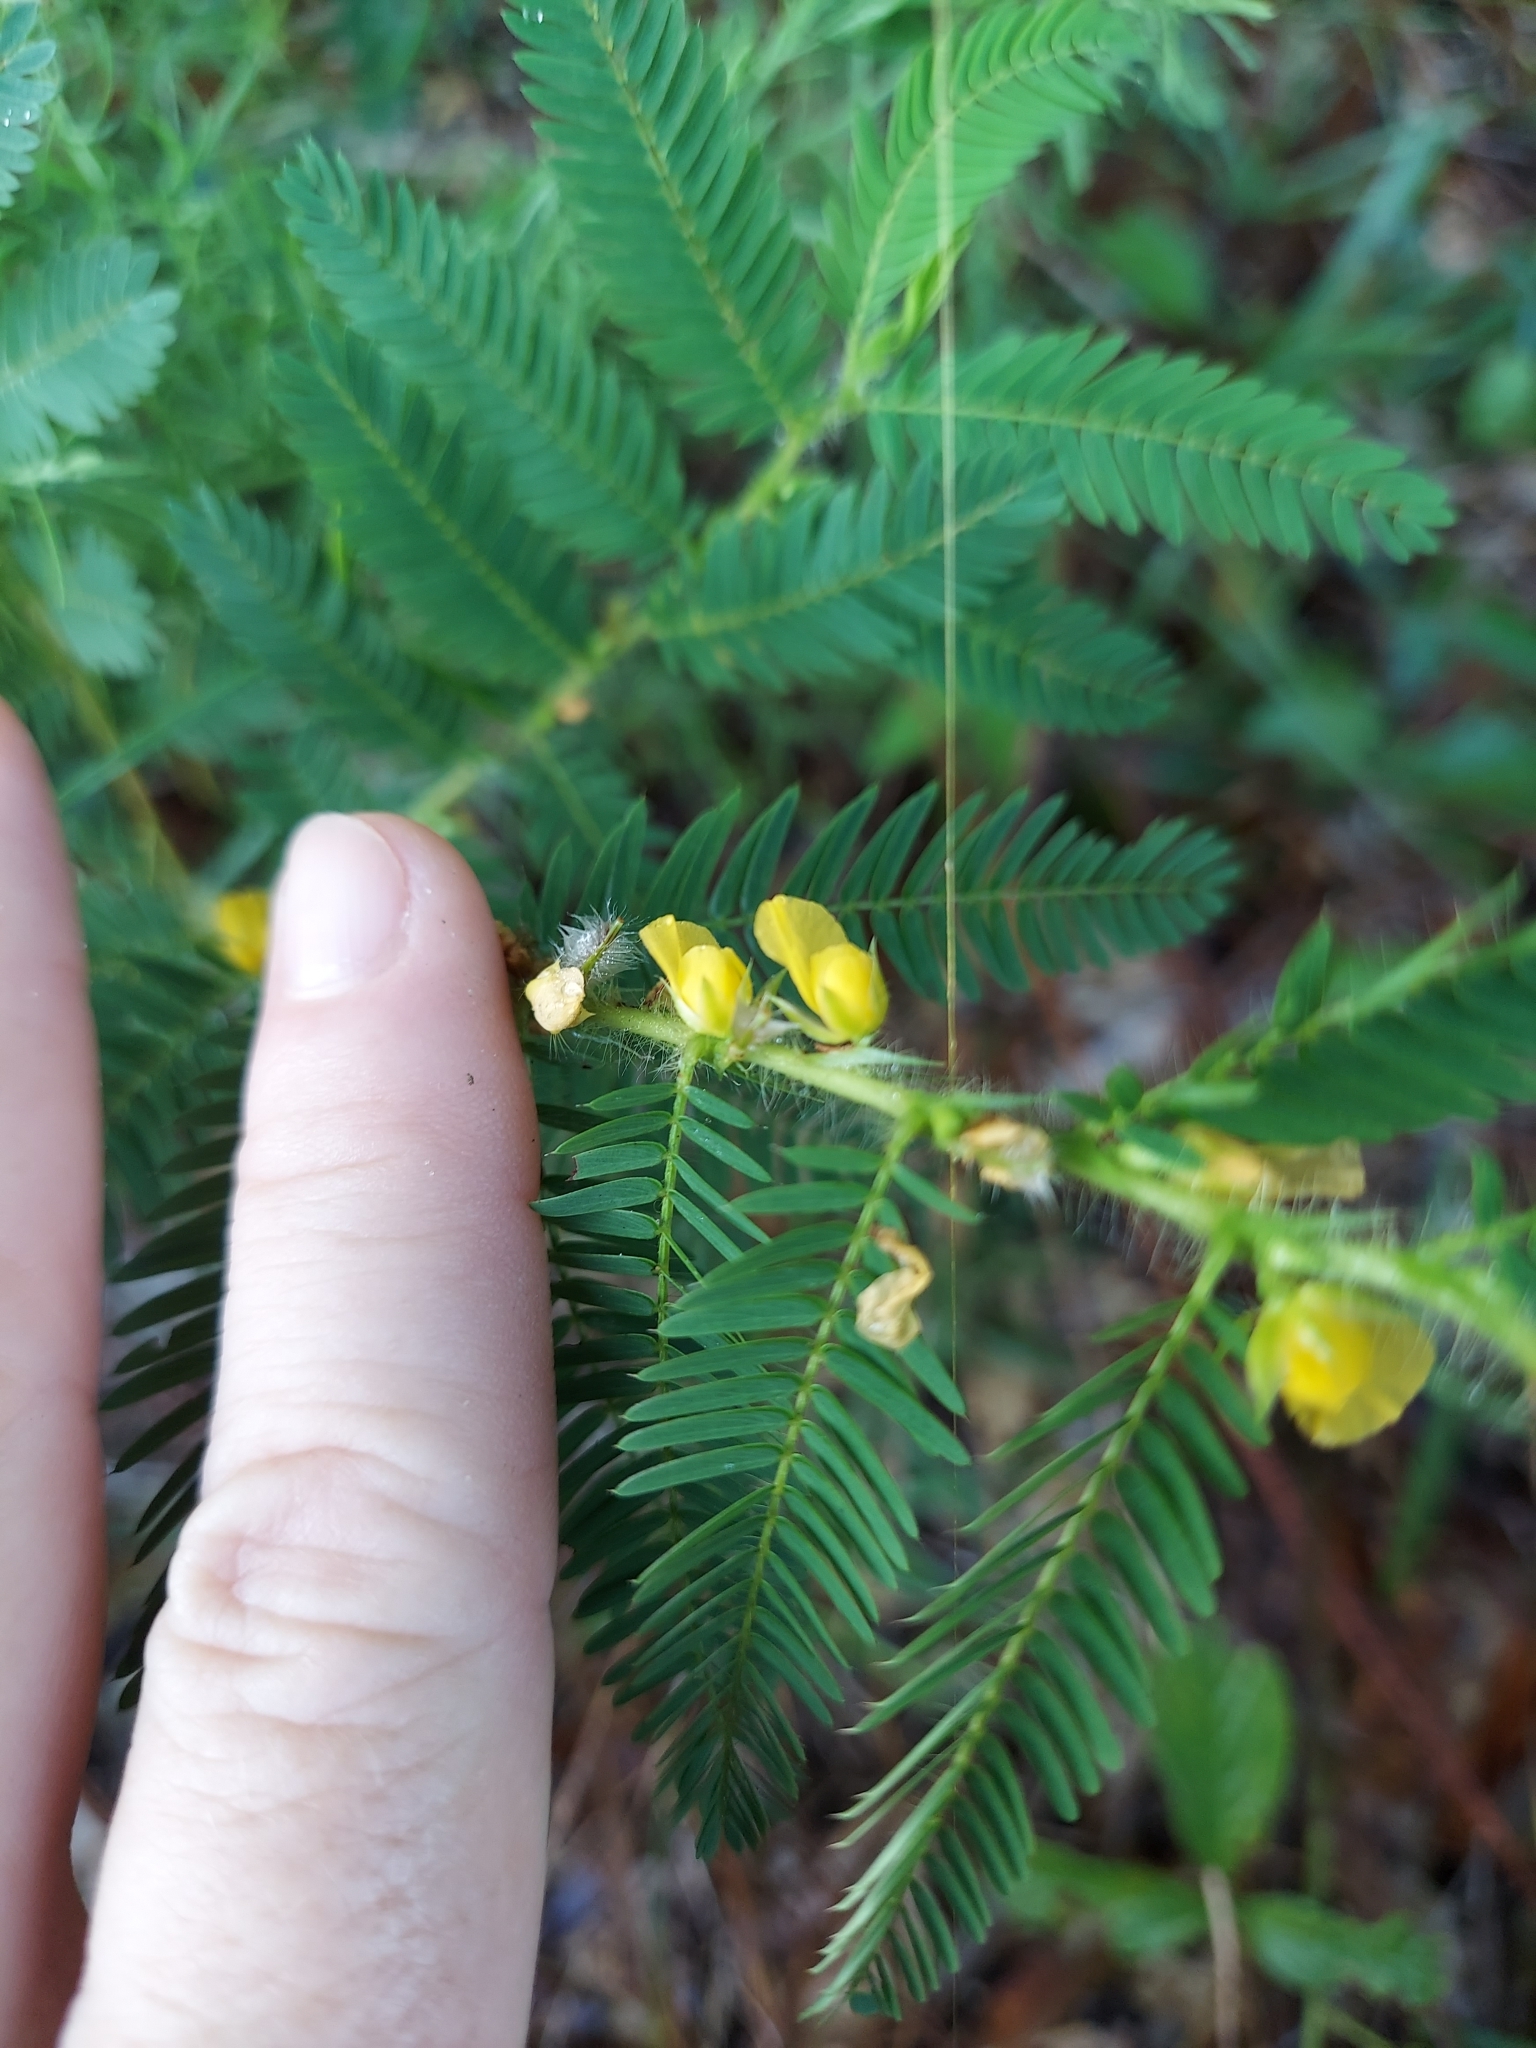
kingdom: Plantae
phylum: Tracheophyta
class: Magnoliopsida
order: Fabales
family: Fabaceae
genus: Chamaecrista
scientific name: Chamaecrista nictitans
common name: Sensitive cassia
